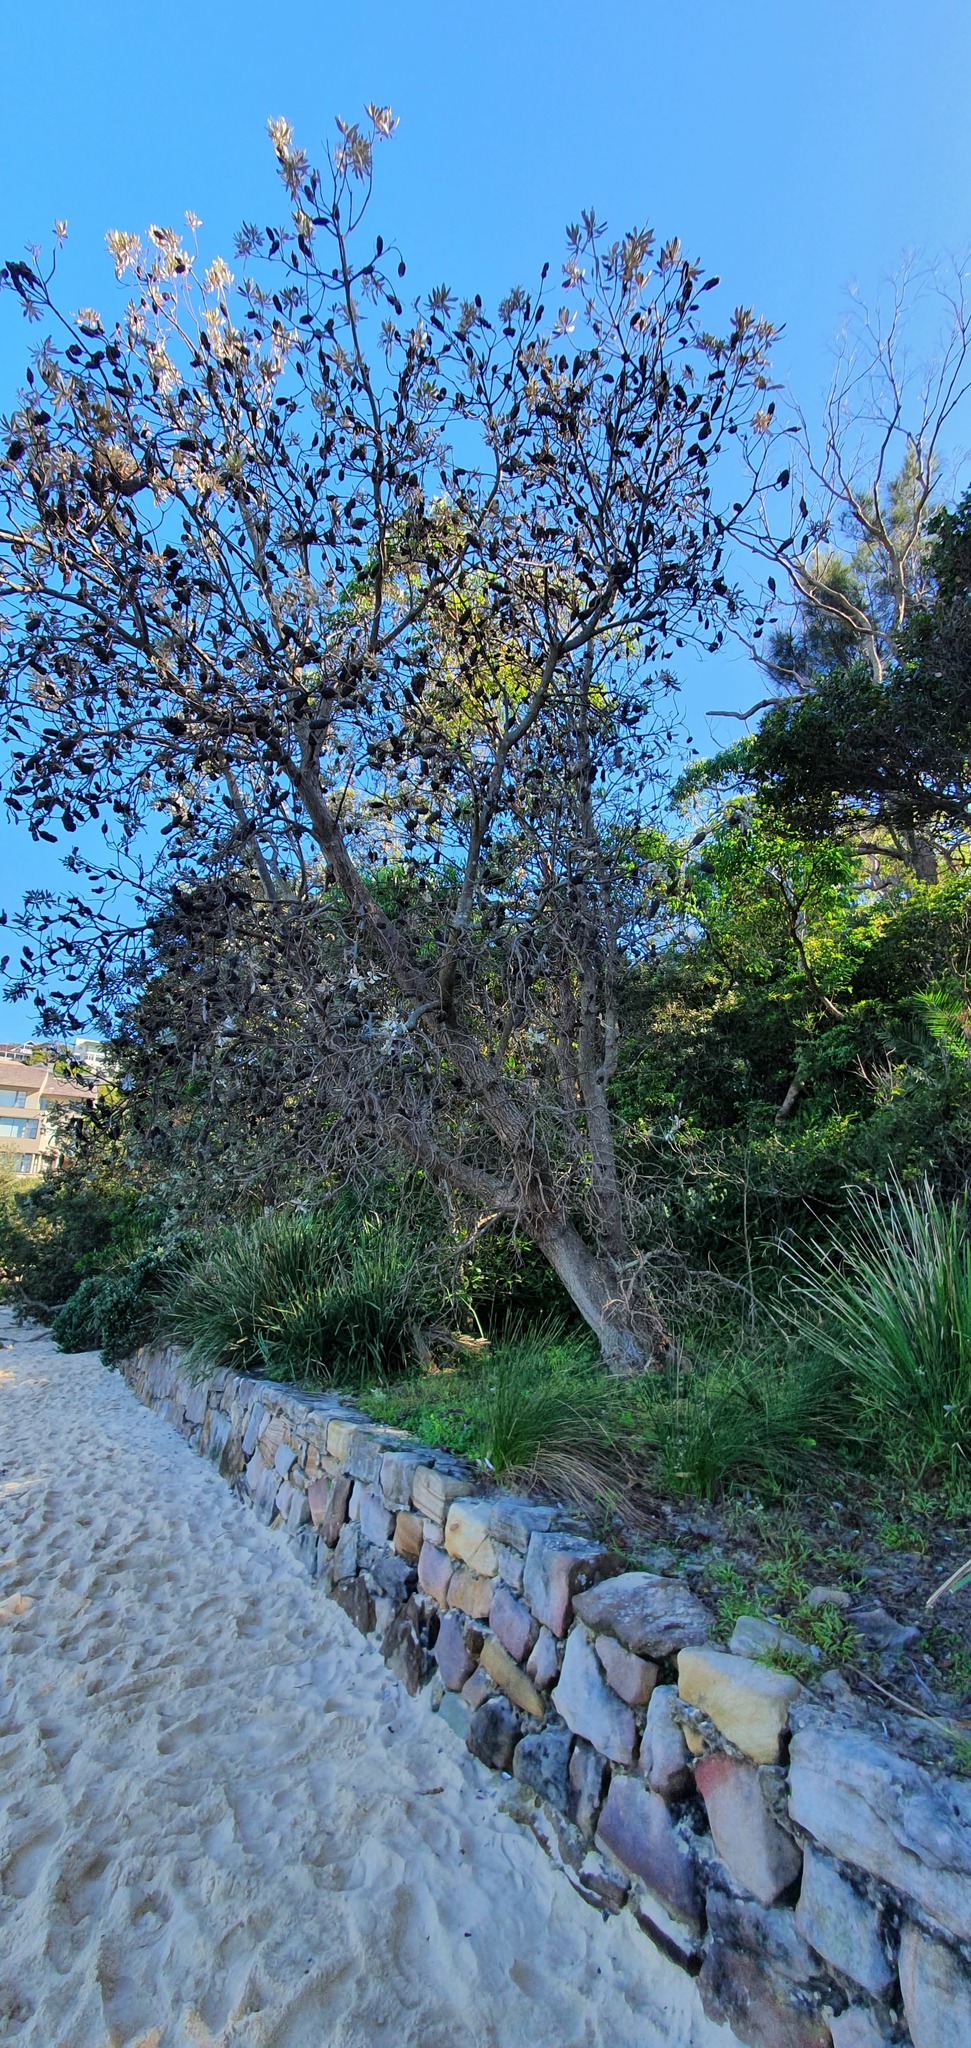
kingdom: Plantae
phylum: Tracheophyta
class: Magnoliopsida
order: Proteales
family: Proteaceae
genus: Banksia
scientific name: Banksia integrifolia
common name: White-honeysuckle
